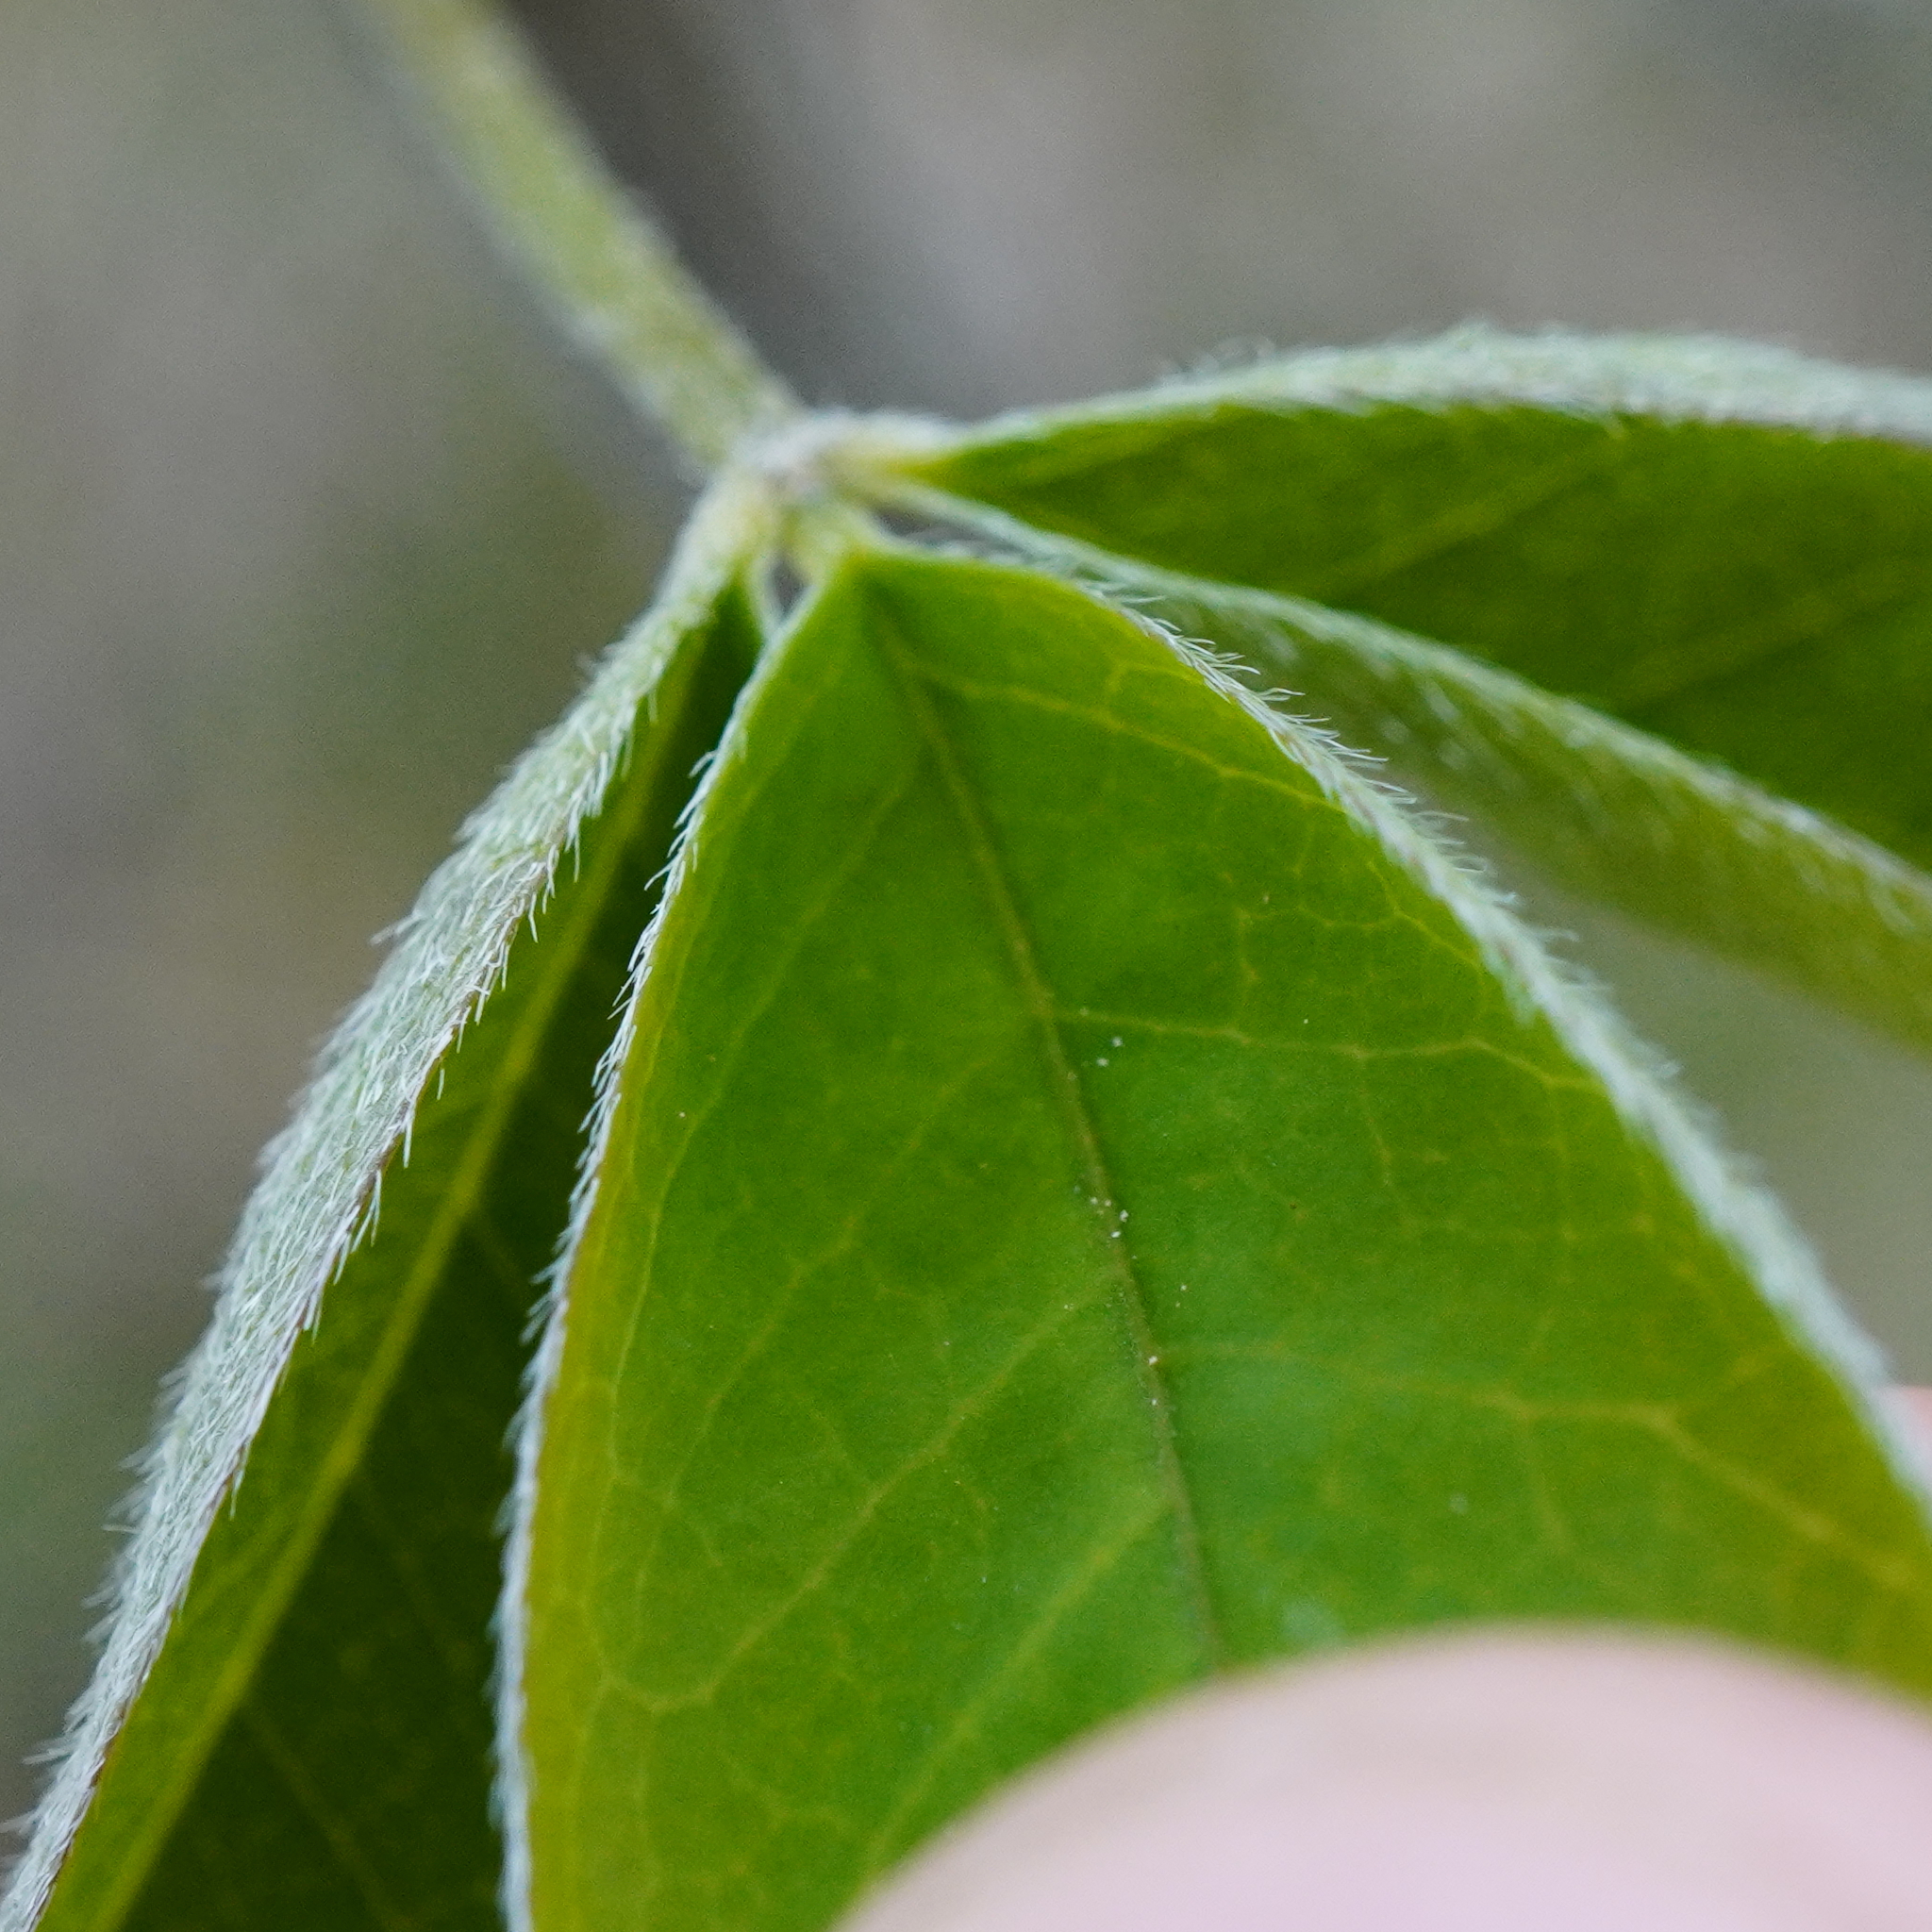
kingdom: Plantae
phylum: Tracheophyta
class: Magnoliopsida
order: Fabales
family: Fabaceae
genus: Laburnum
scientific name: Laburnum anagyroides
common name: Laburnum
